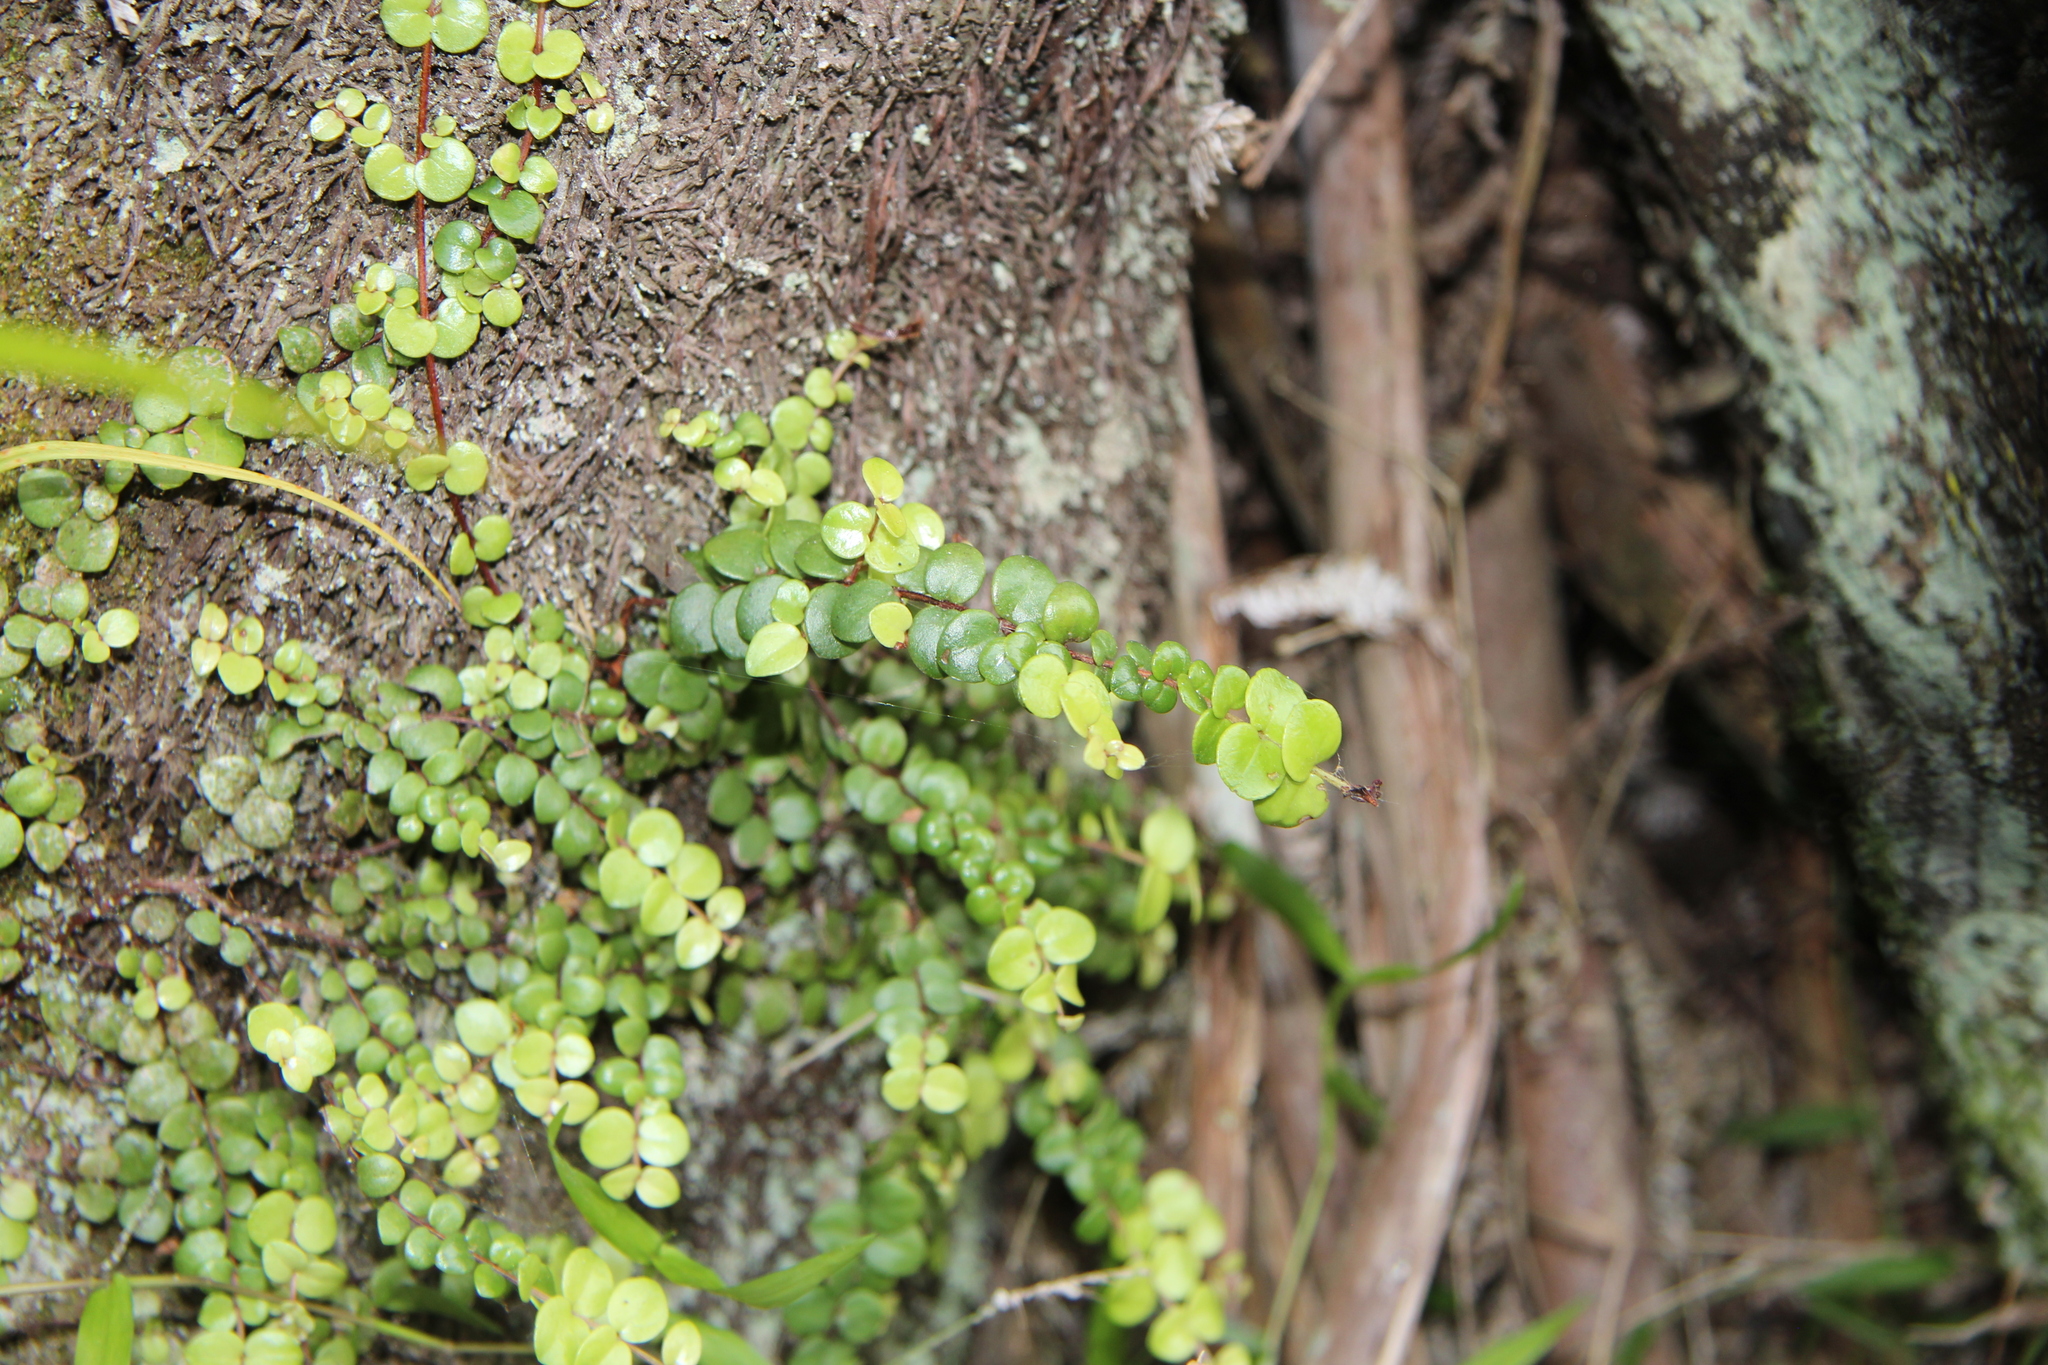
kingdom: Plantae
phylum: Tracheophyta
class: Magnoliopsida
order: Myrtales
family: Myrtaceae
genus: Metrosideros
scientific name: Metrosideros perforata
